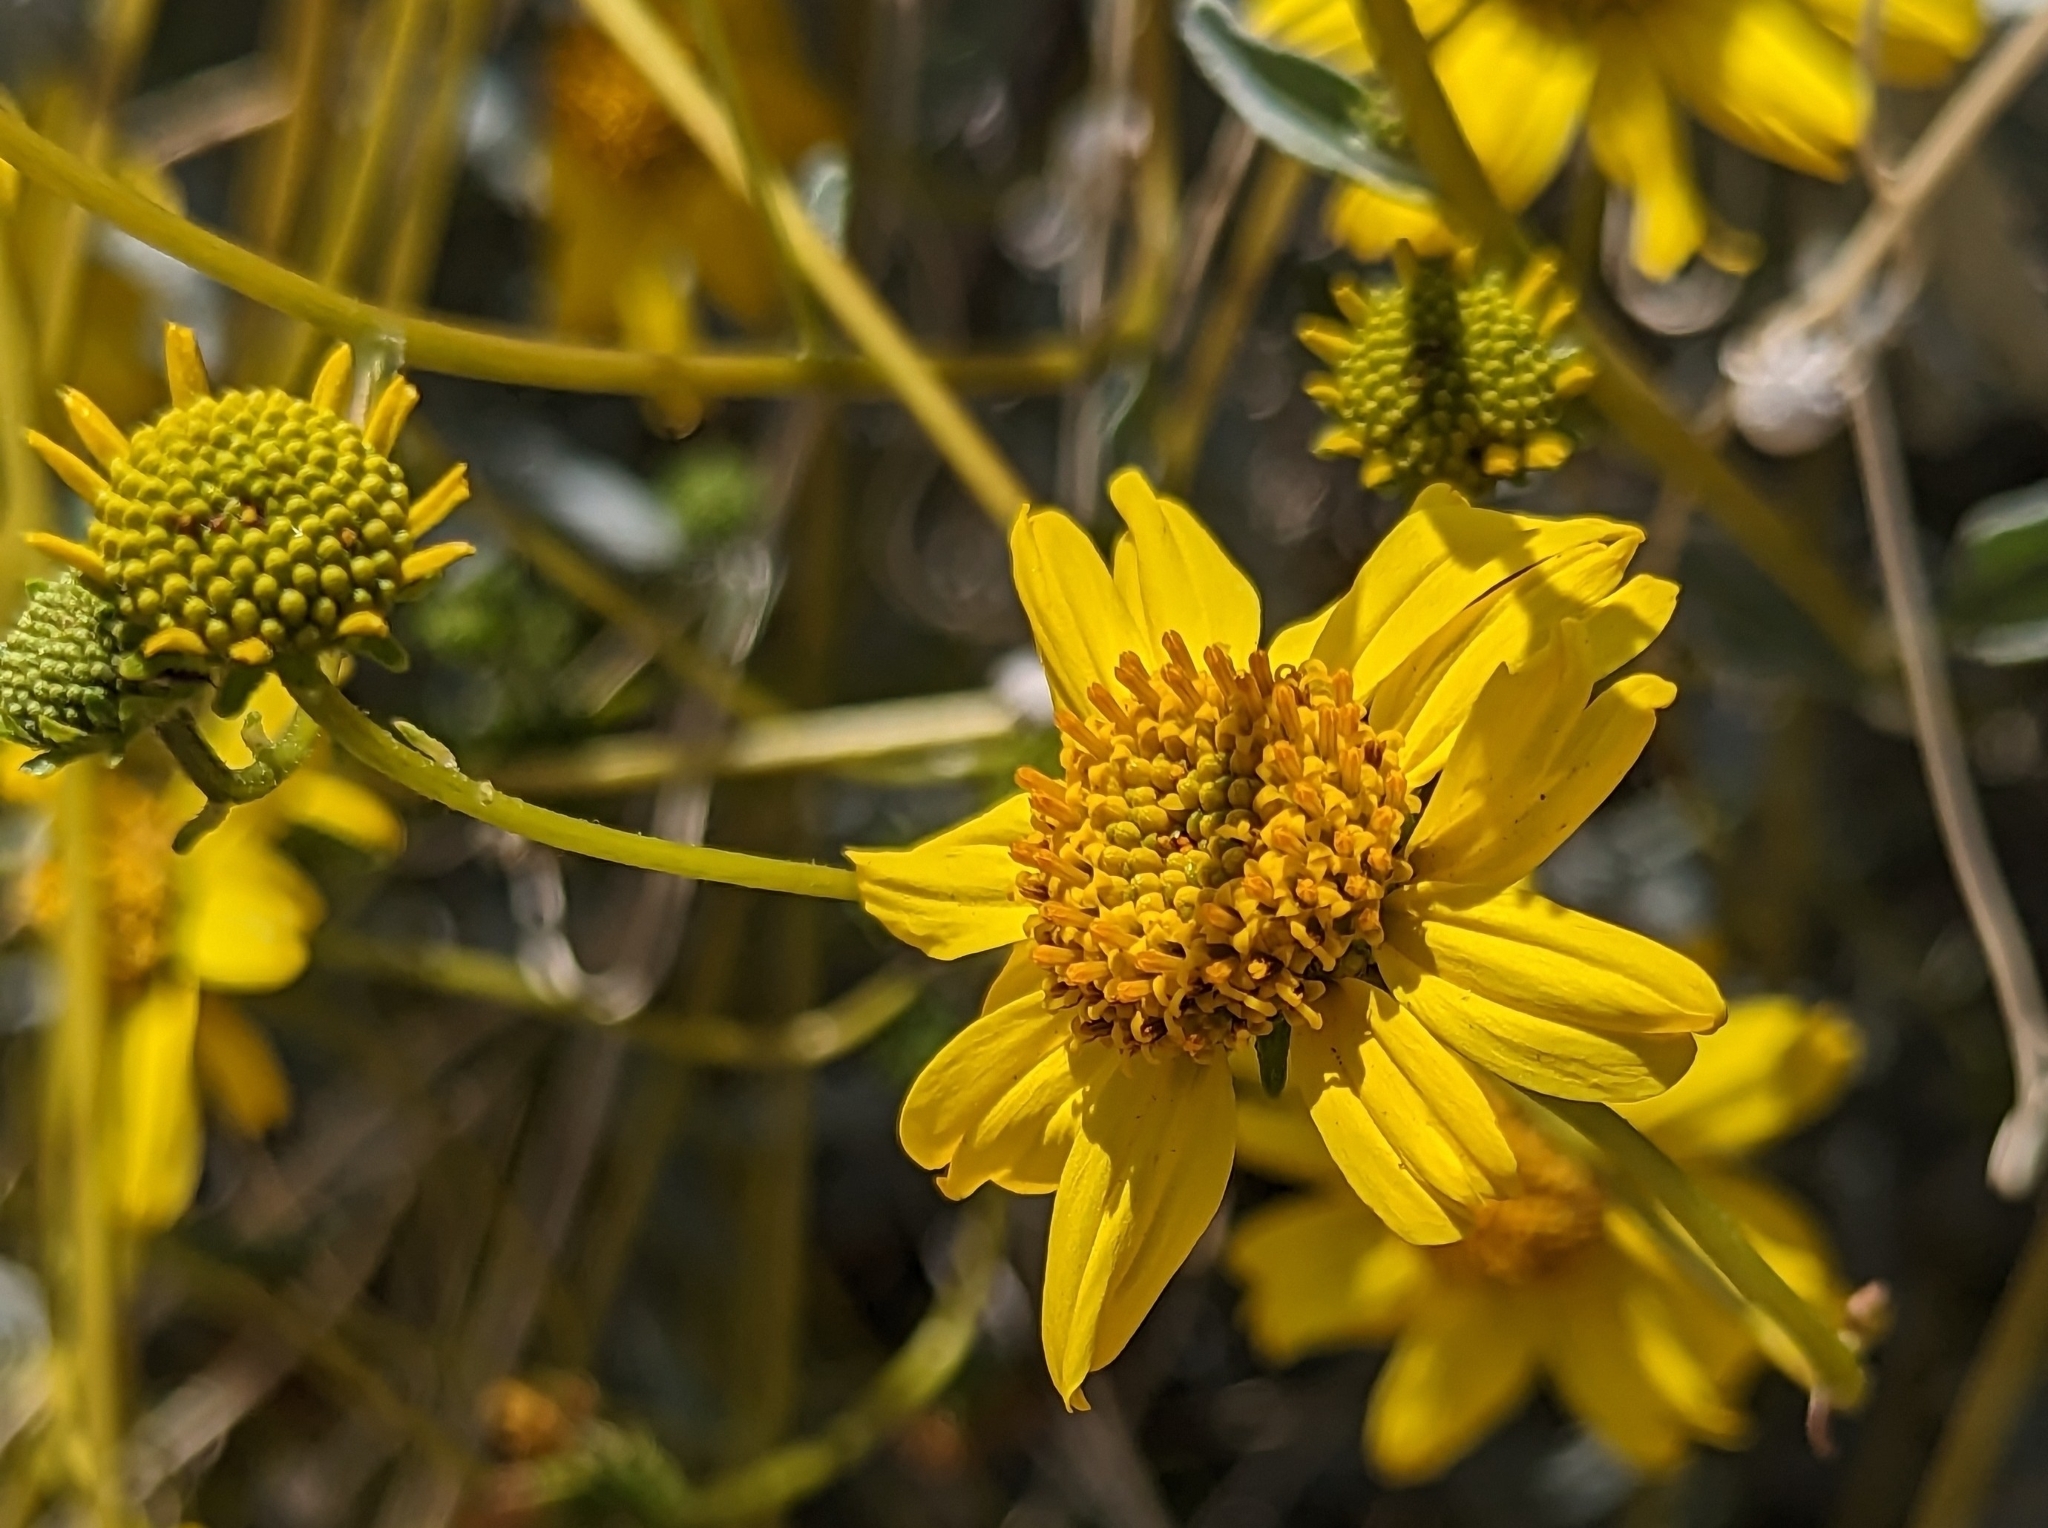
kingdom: Plantae
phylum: Tracheophyta
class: Magnoliopsida
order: Asterales
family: Asteraceae
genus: Encelia
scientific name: Encelia farinosa
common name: Brittlebush
